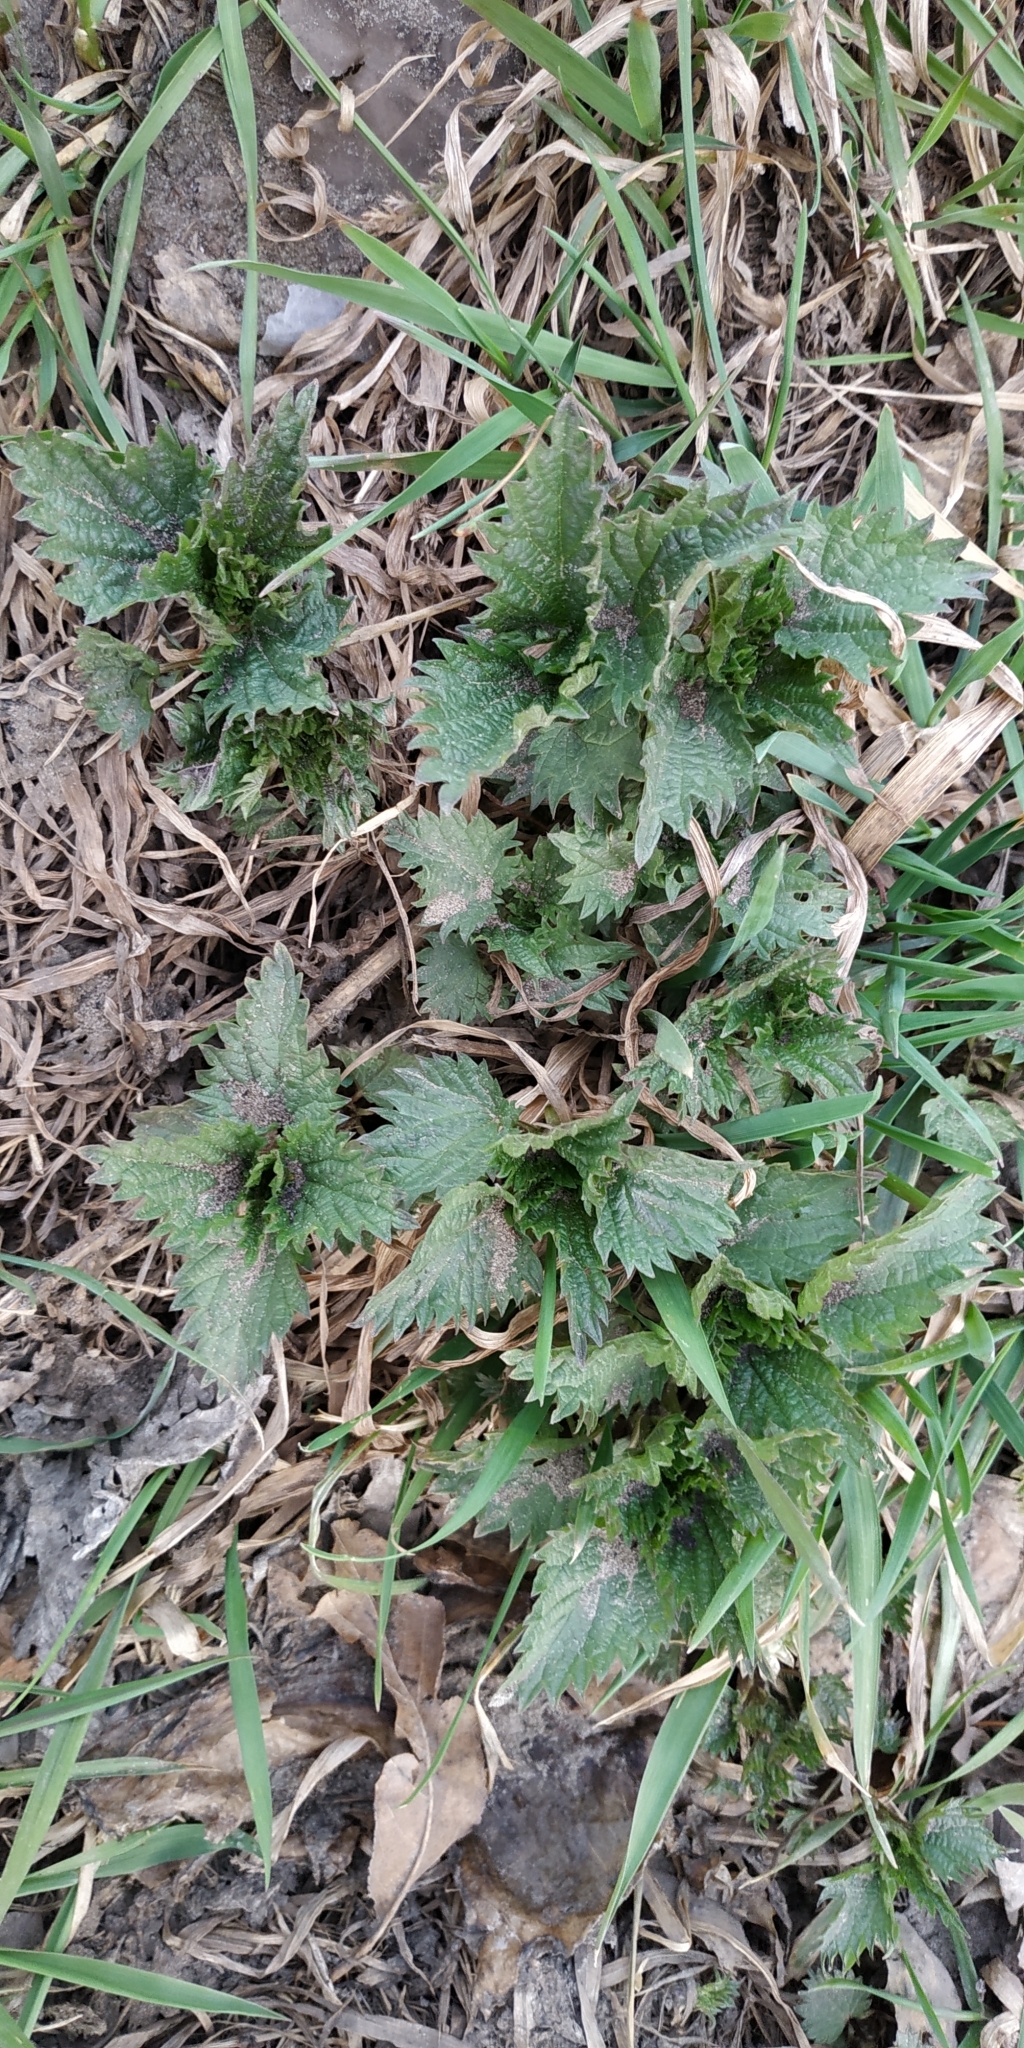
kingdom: Plantae
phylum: Tracheophyta
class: Magnoliopsida
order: Rosales
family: Urticaceae
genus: Urtica
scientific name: Urtica dioica
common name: Common nettle
